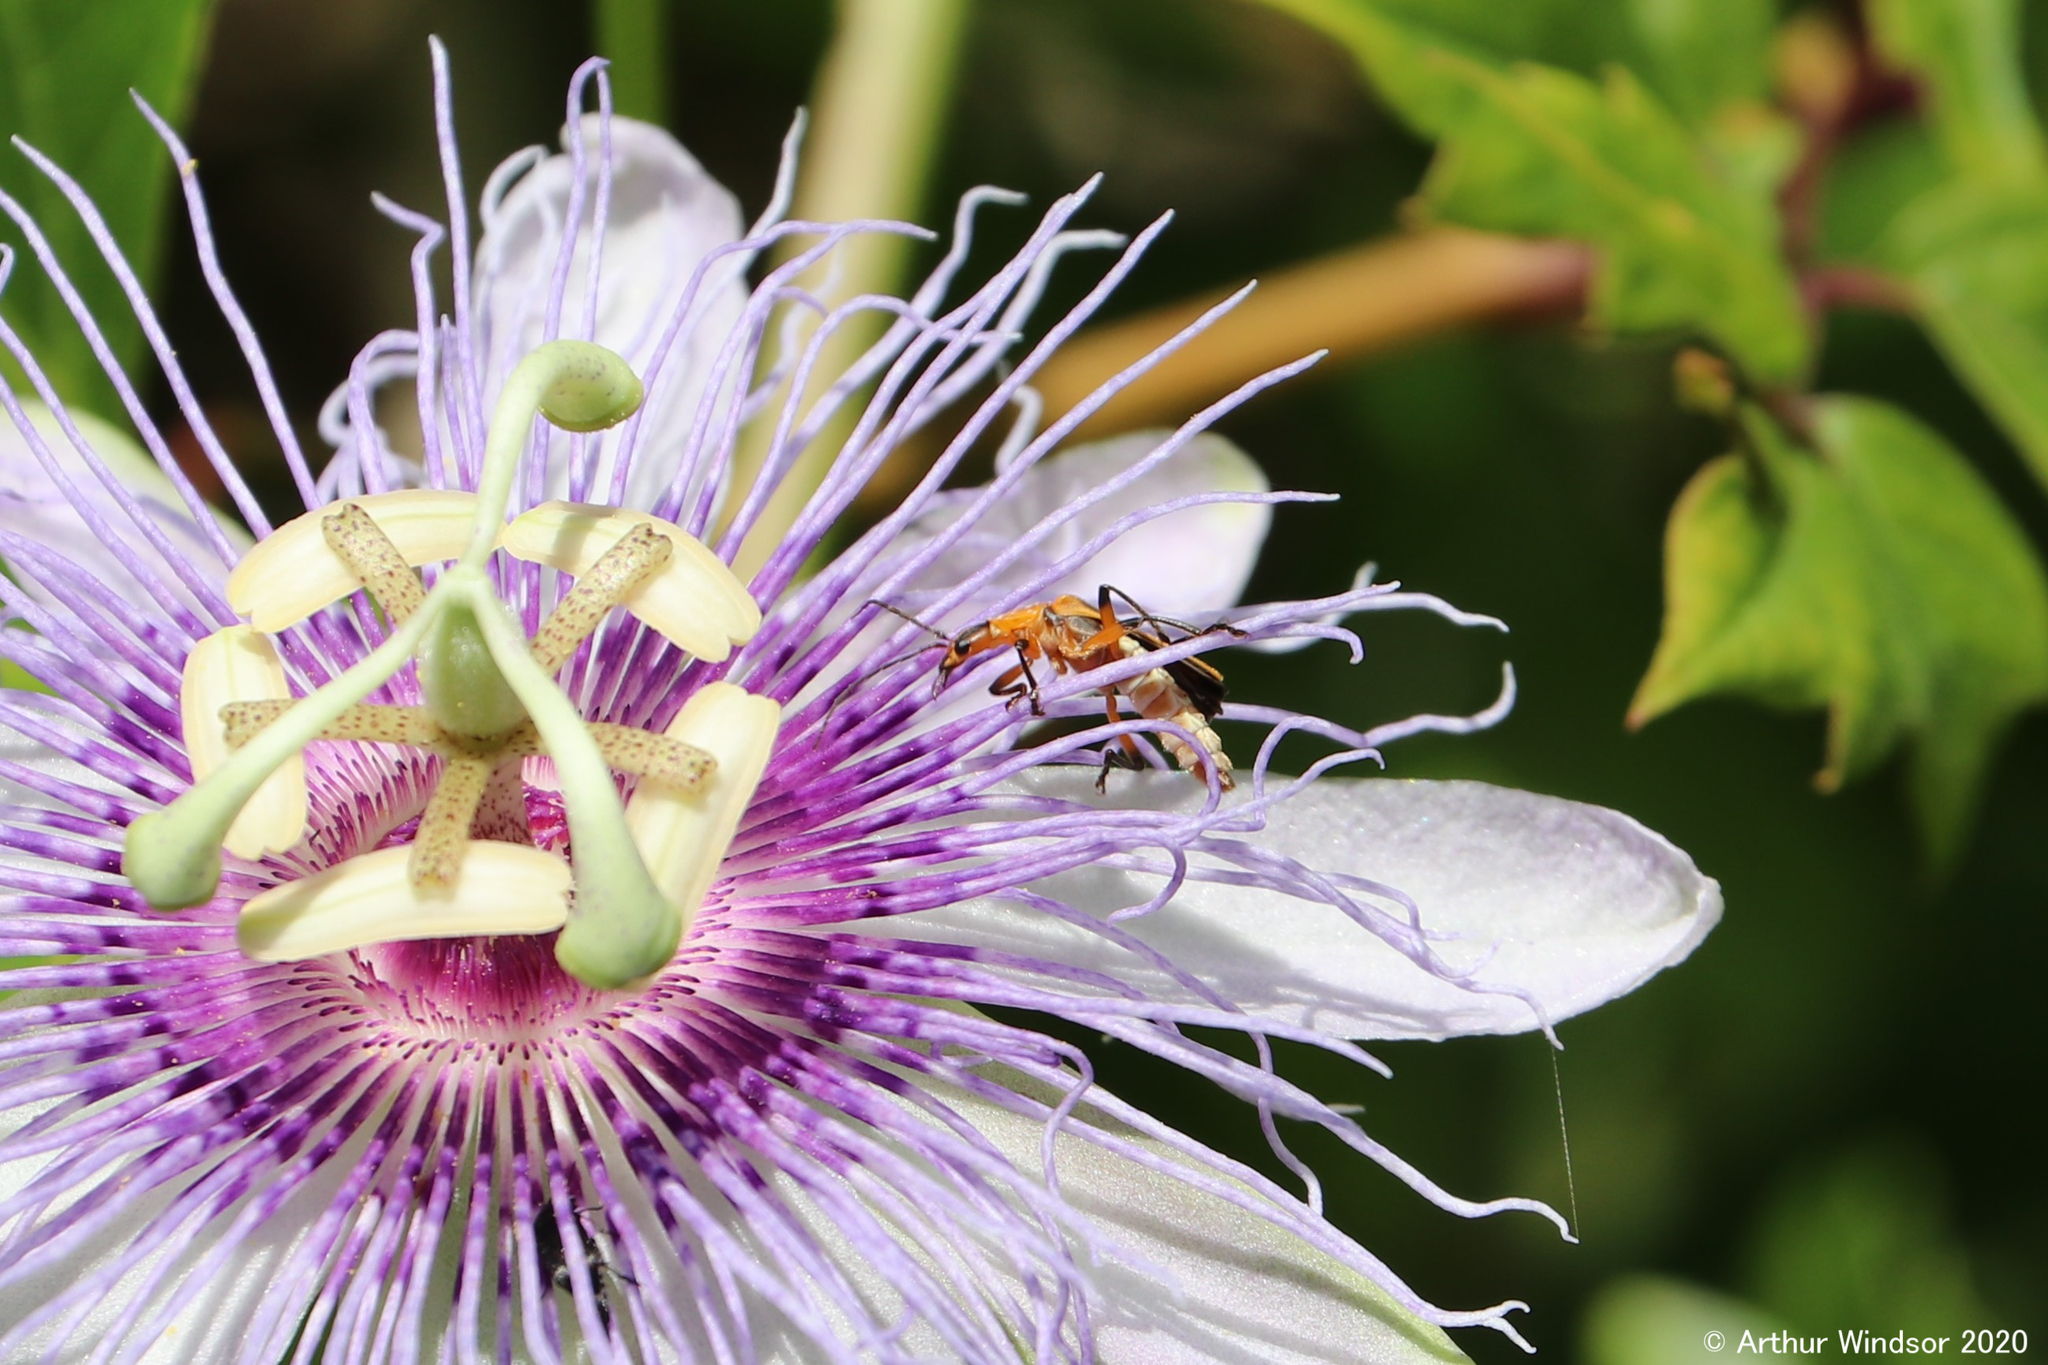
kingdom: Animalia
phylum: Arthropoda
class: Insecta
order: Coleoptera
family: Cantharidae
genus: Chauliognathus
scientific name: Chauliognathus marginatus
